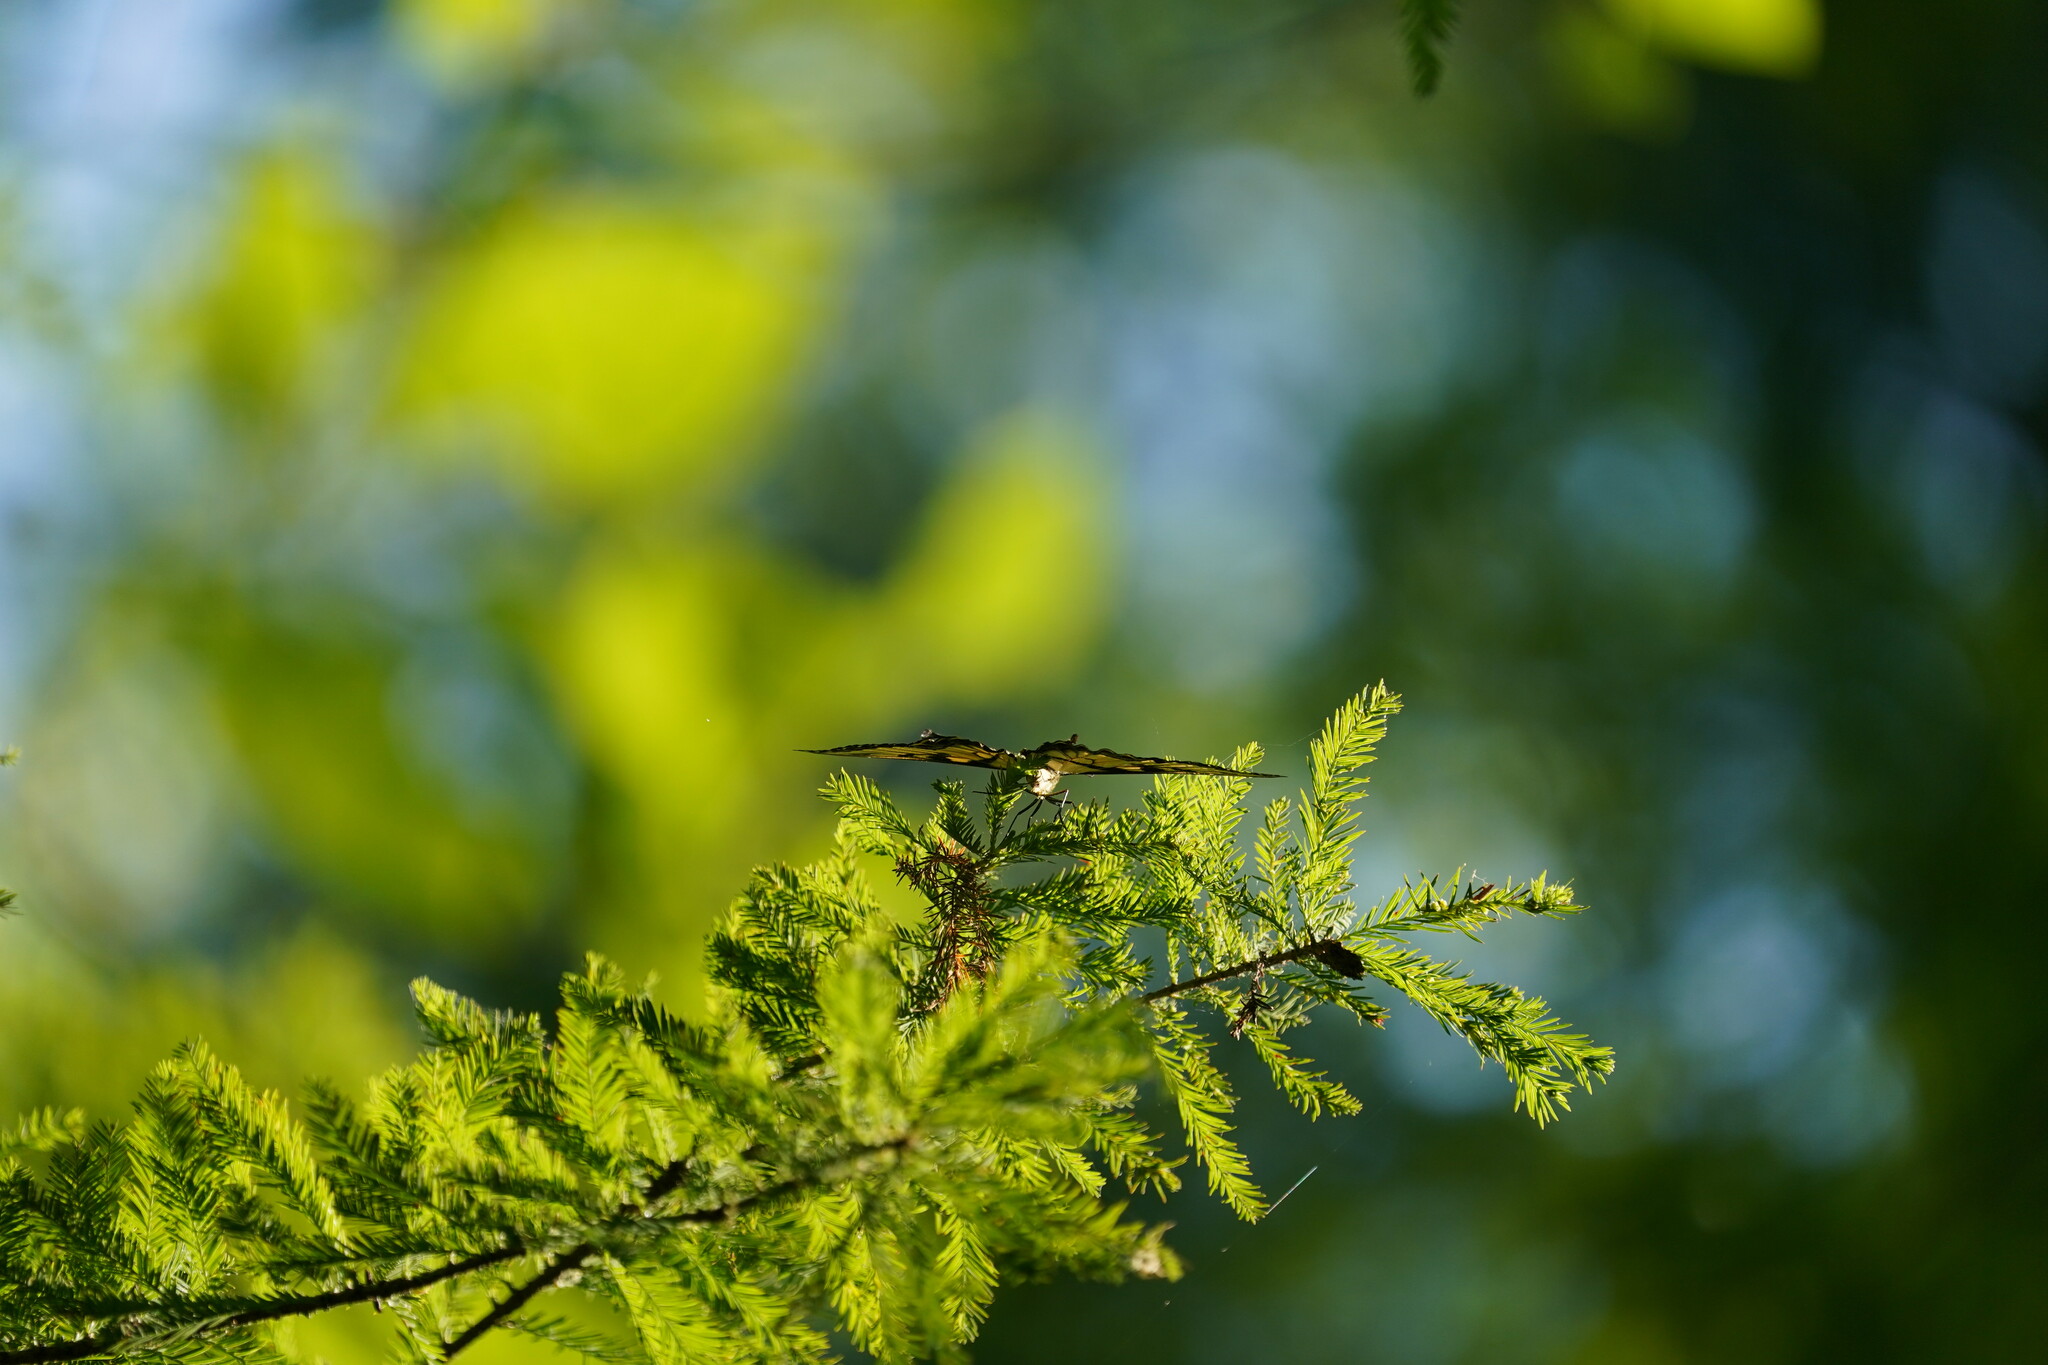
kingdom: Animalia
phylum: Arthropoda
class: Insecta
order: Lepidoptera
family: Papilionidae
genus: Papilio
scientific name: Papilio cresphontes
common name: Giant swallowtail
